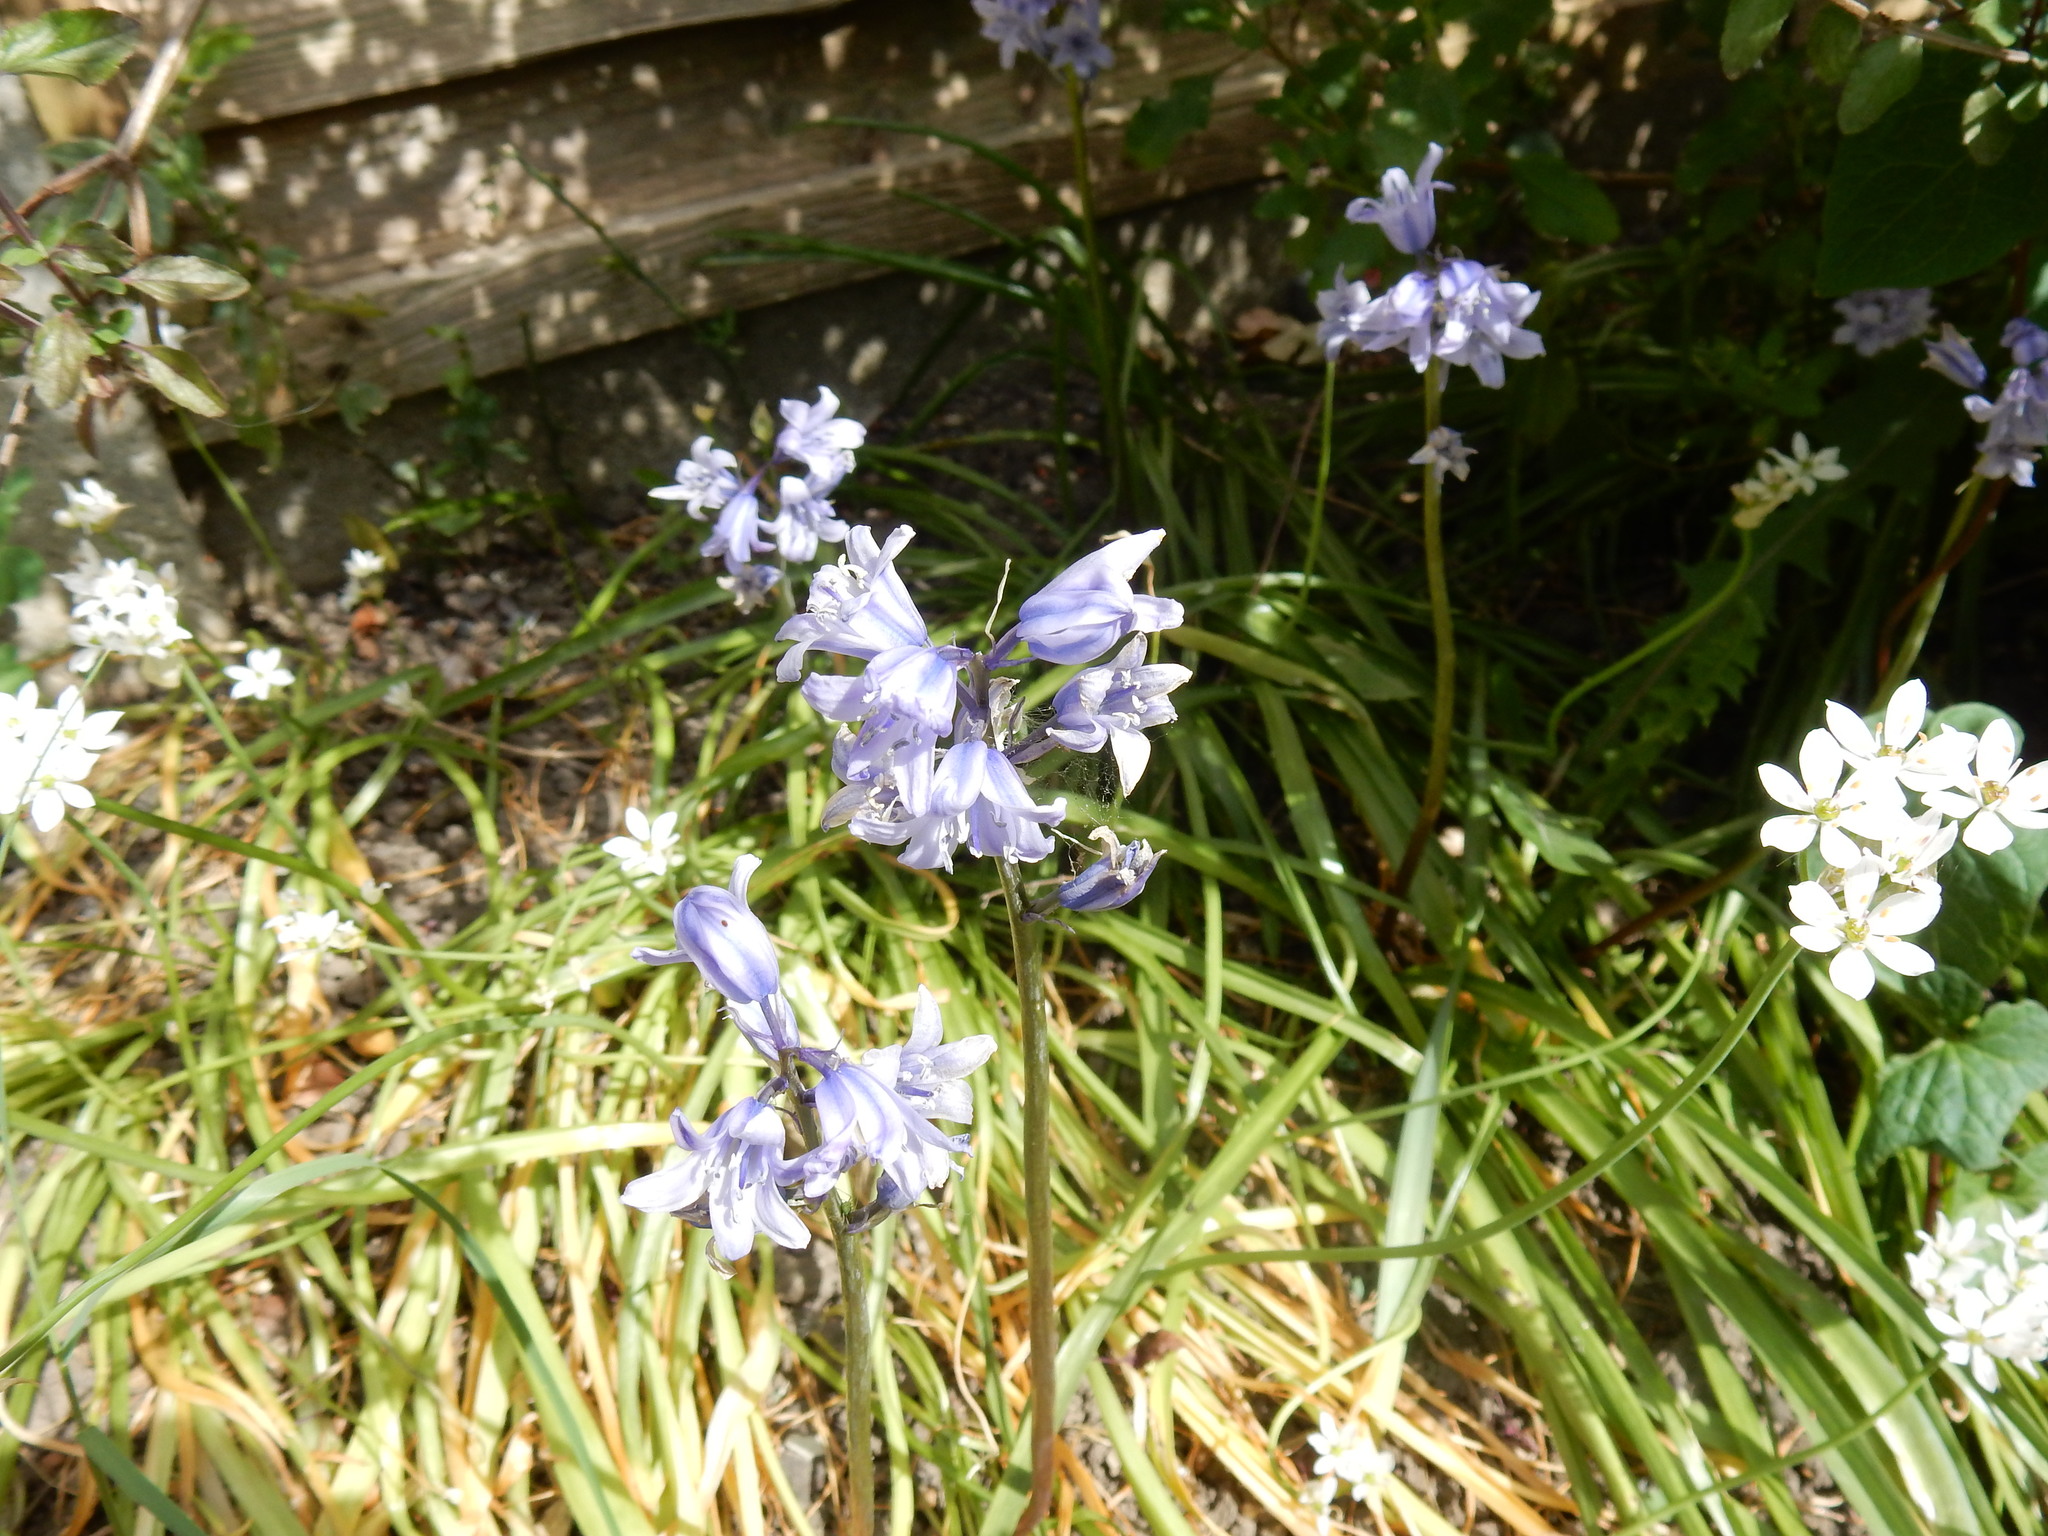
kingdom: Plantae
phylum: Tracheophyta
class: Liliopsida
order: Asparagales
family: Asparagaceae
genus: Hyacinthoides
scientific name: Hyacinthoides hispanica
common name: Spanish bluebell
